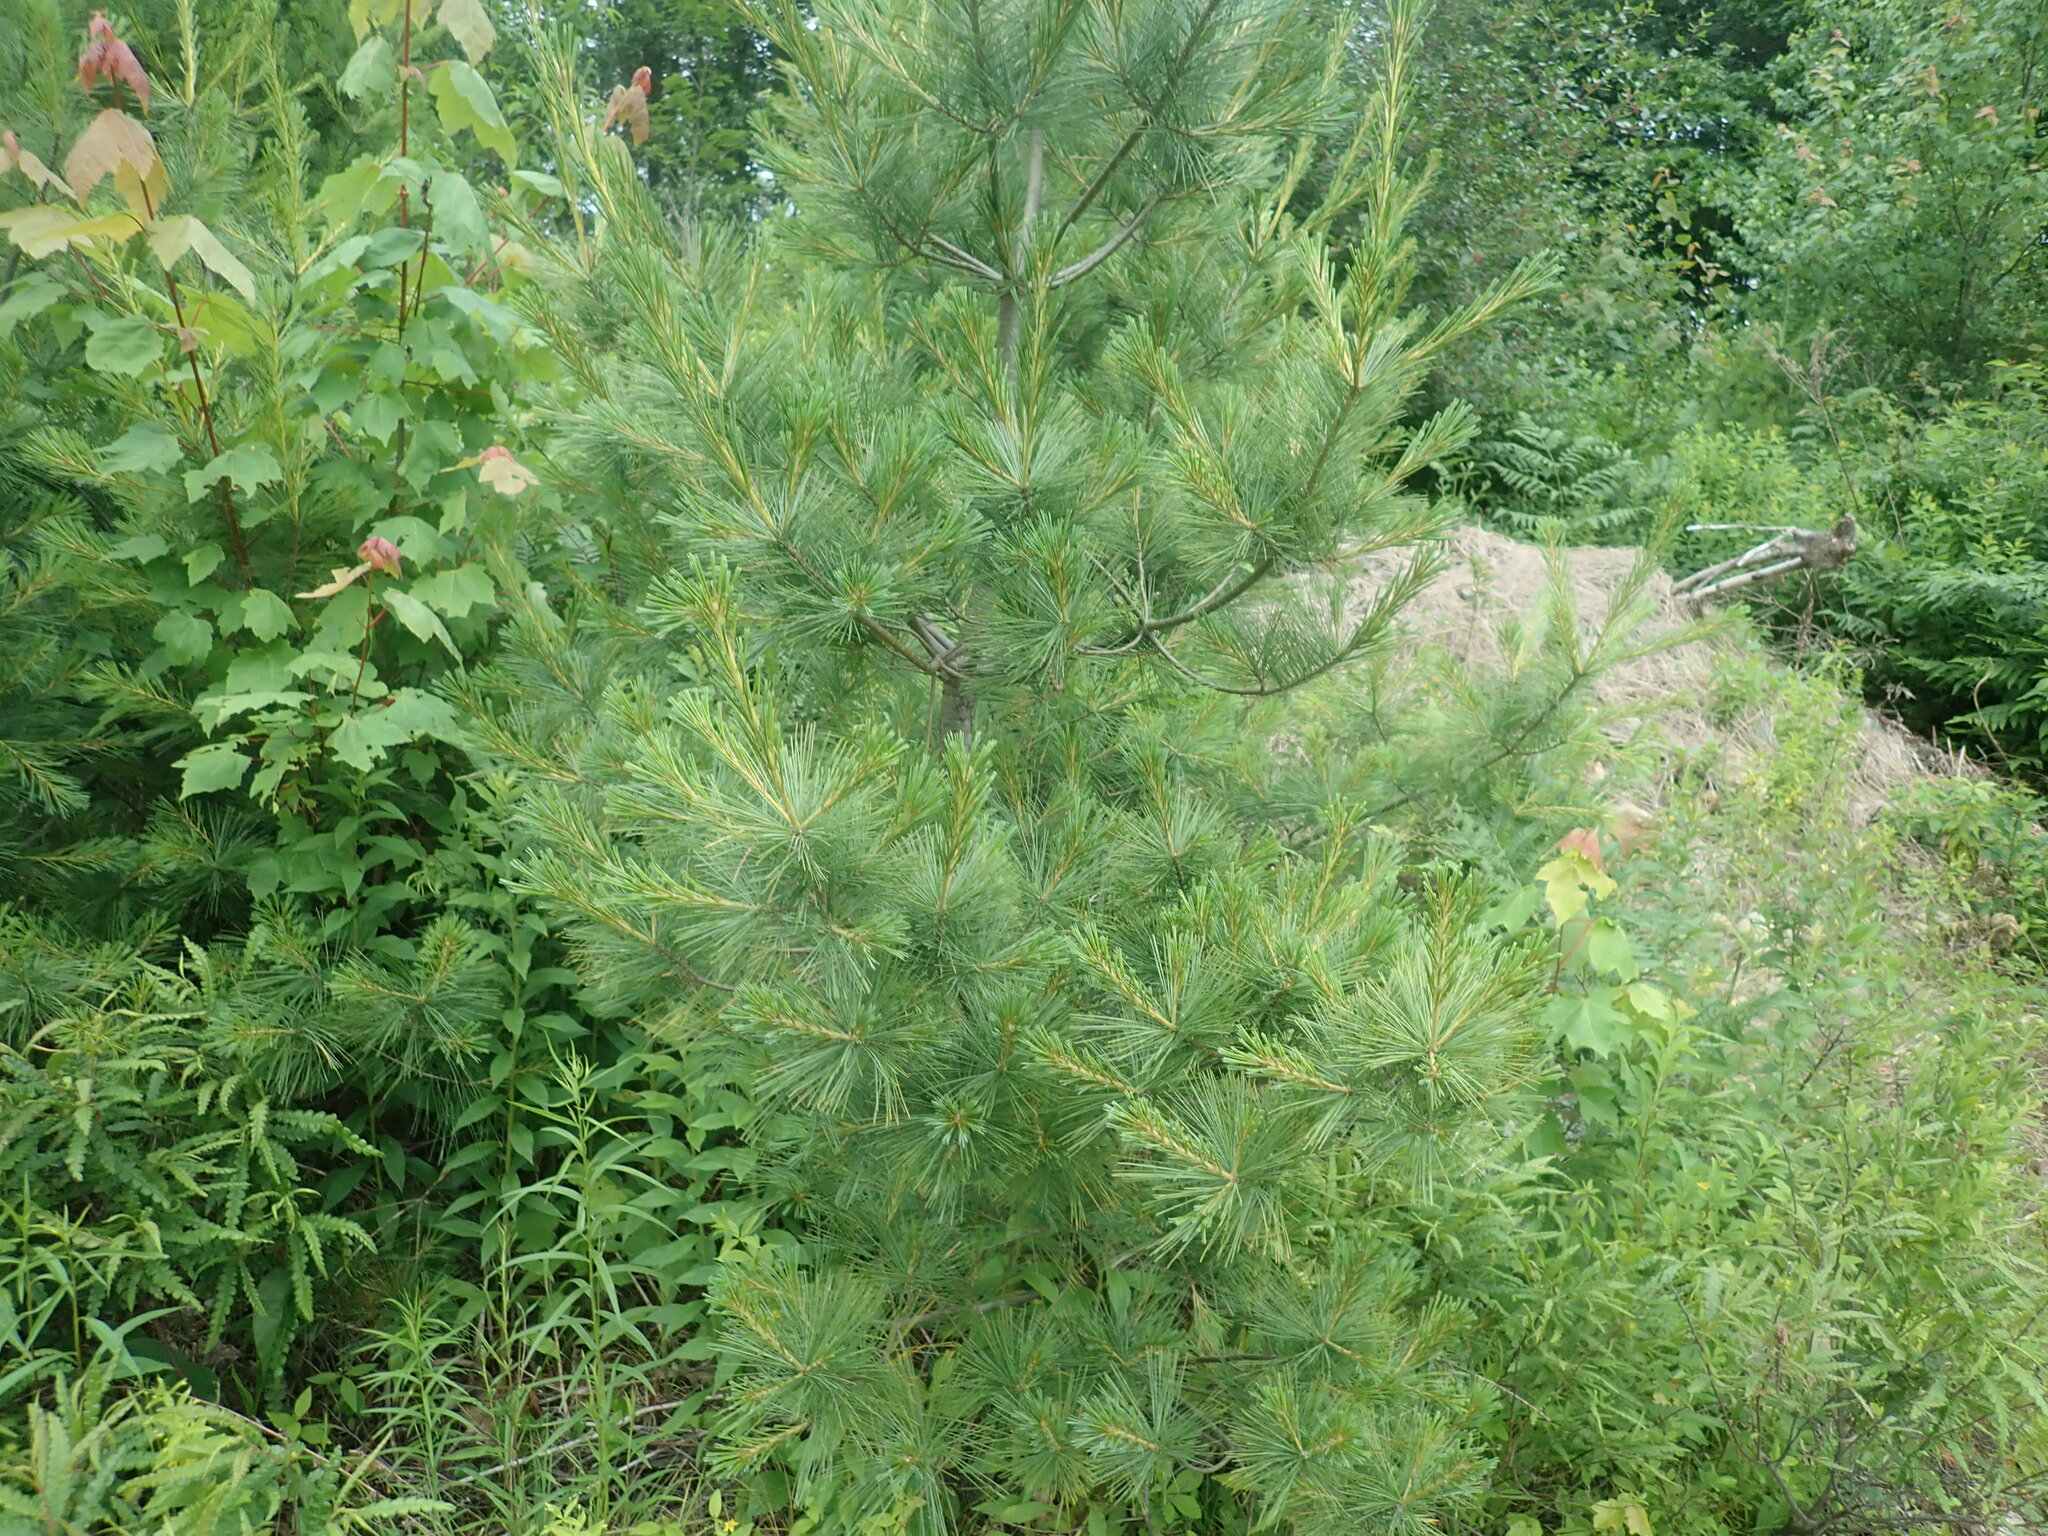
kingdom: Plantae
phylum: Tracheophyta
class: Pinopsida
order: Pinales
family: Pinaceae
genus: Pinus
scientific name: Pinus strobus
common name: Weymouth pine
